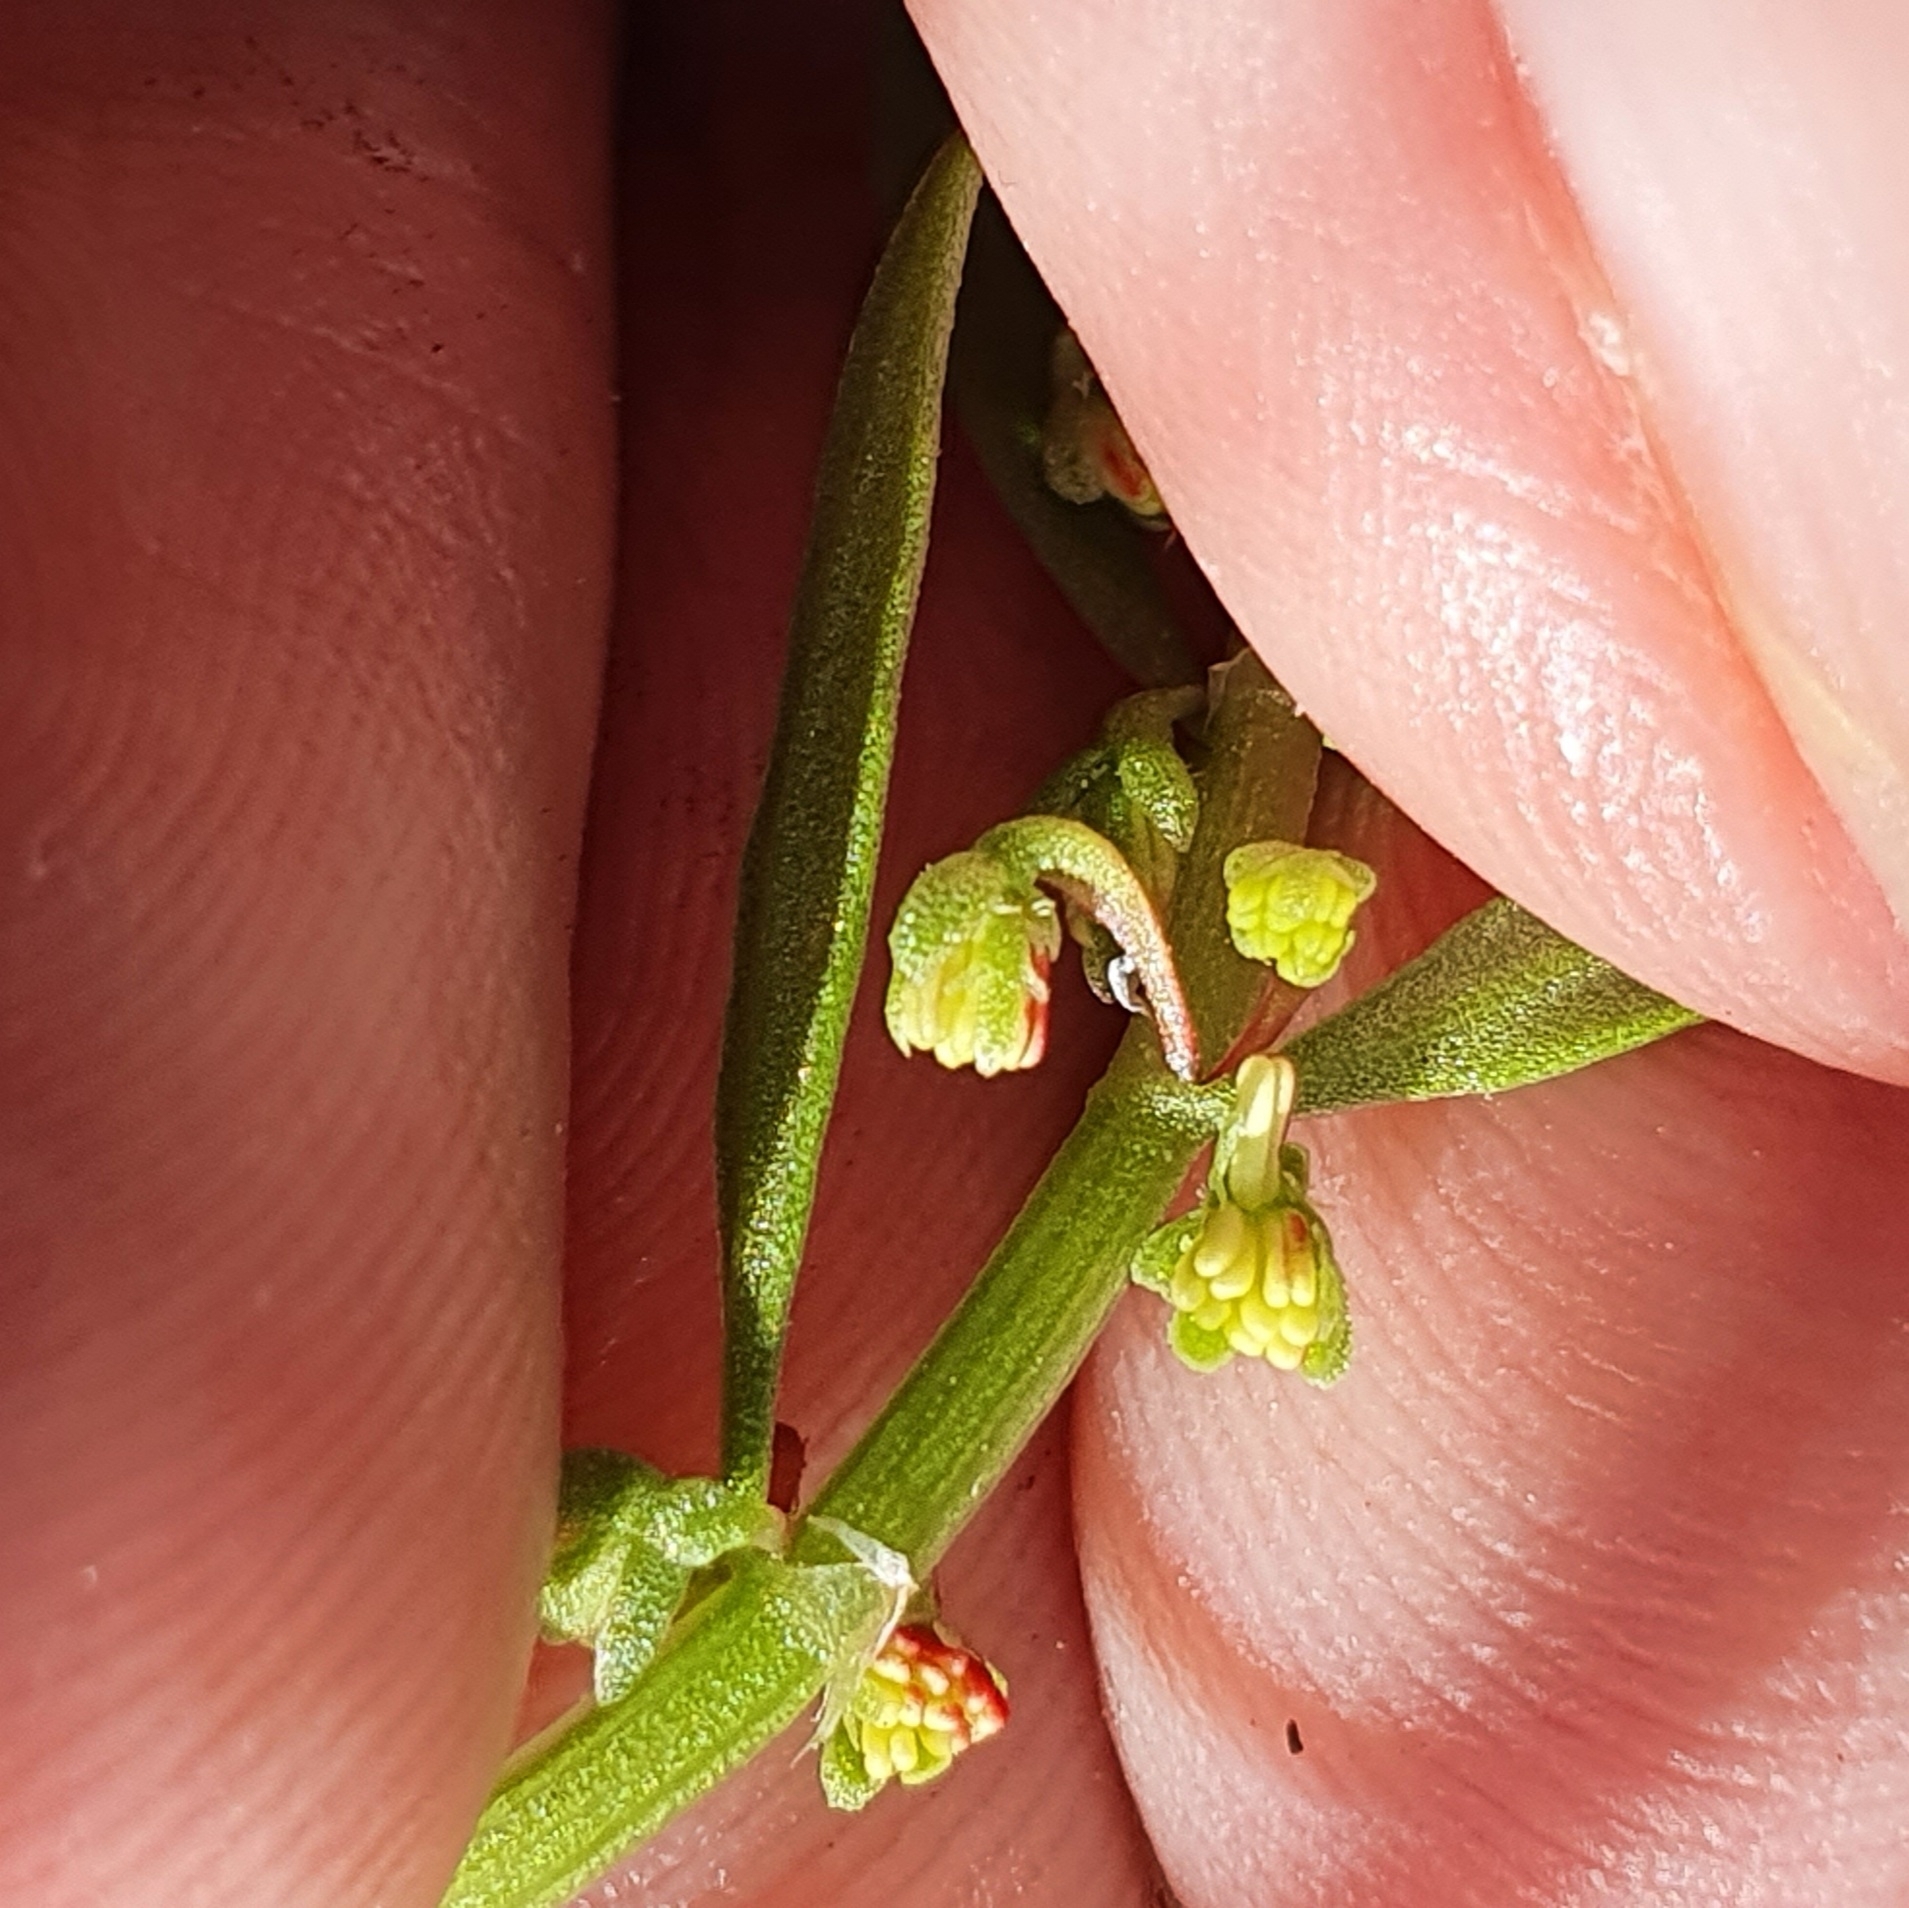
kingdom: Plantae
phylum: Tracheophyta
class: Magnoliopsida
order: Caryophyllales
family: Polygonaceae
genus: Rumex
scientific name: Rumex bucephalophorus
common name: Red dock
